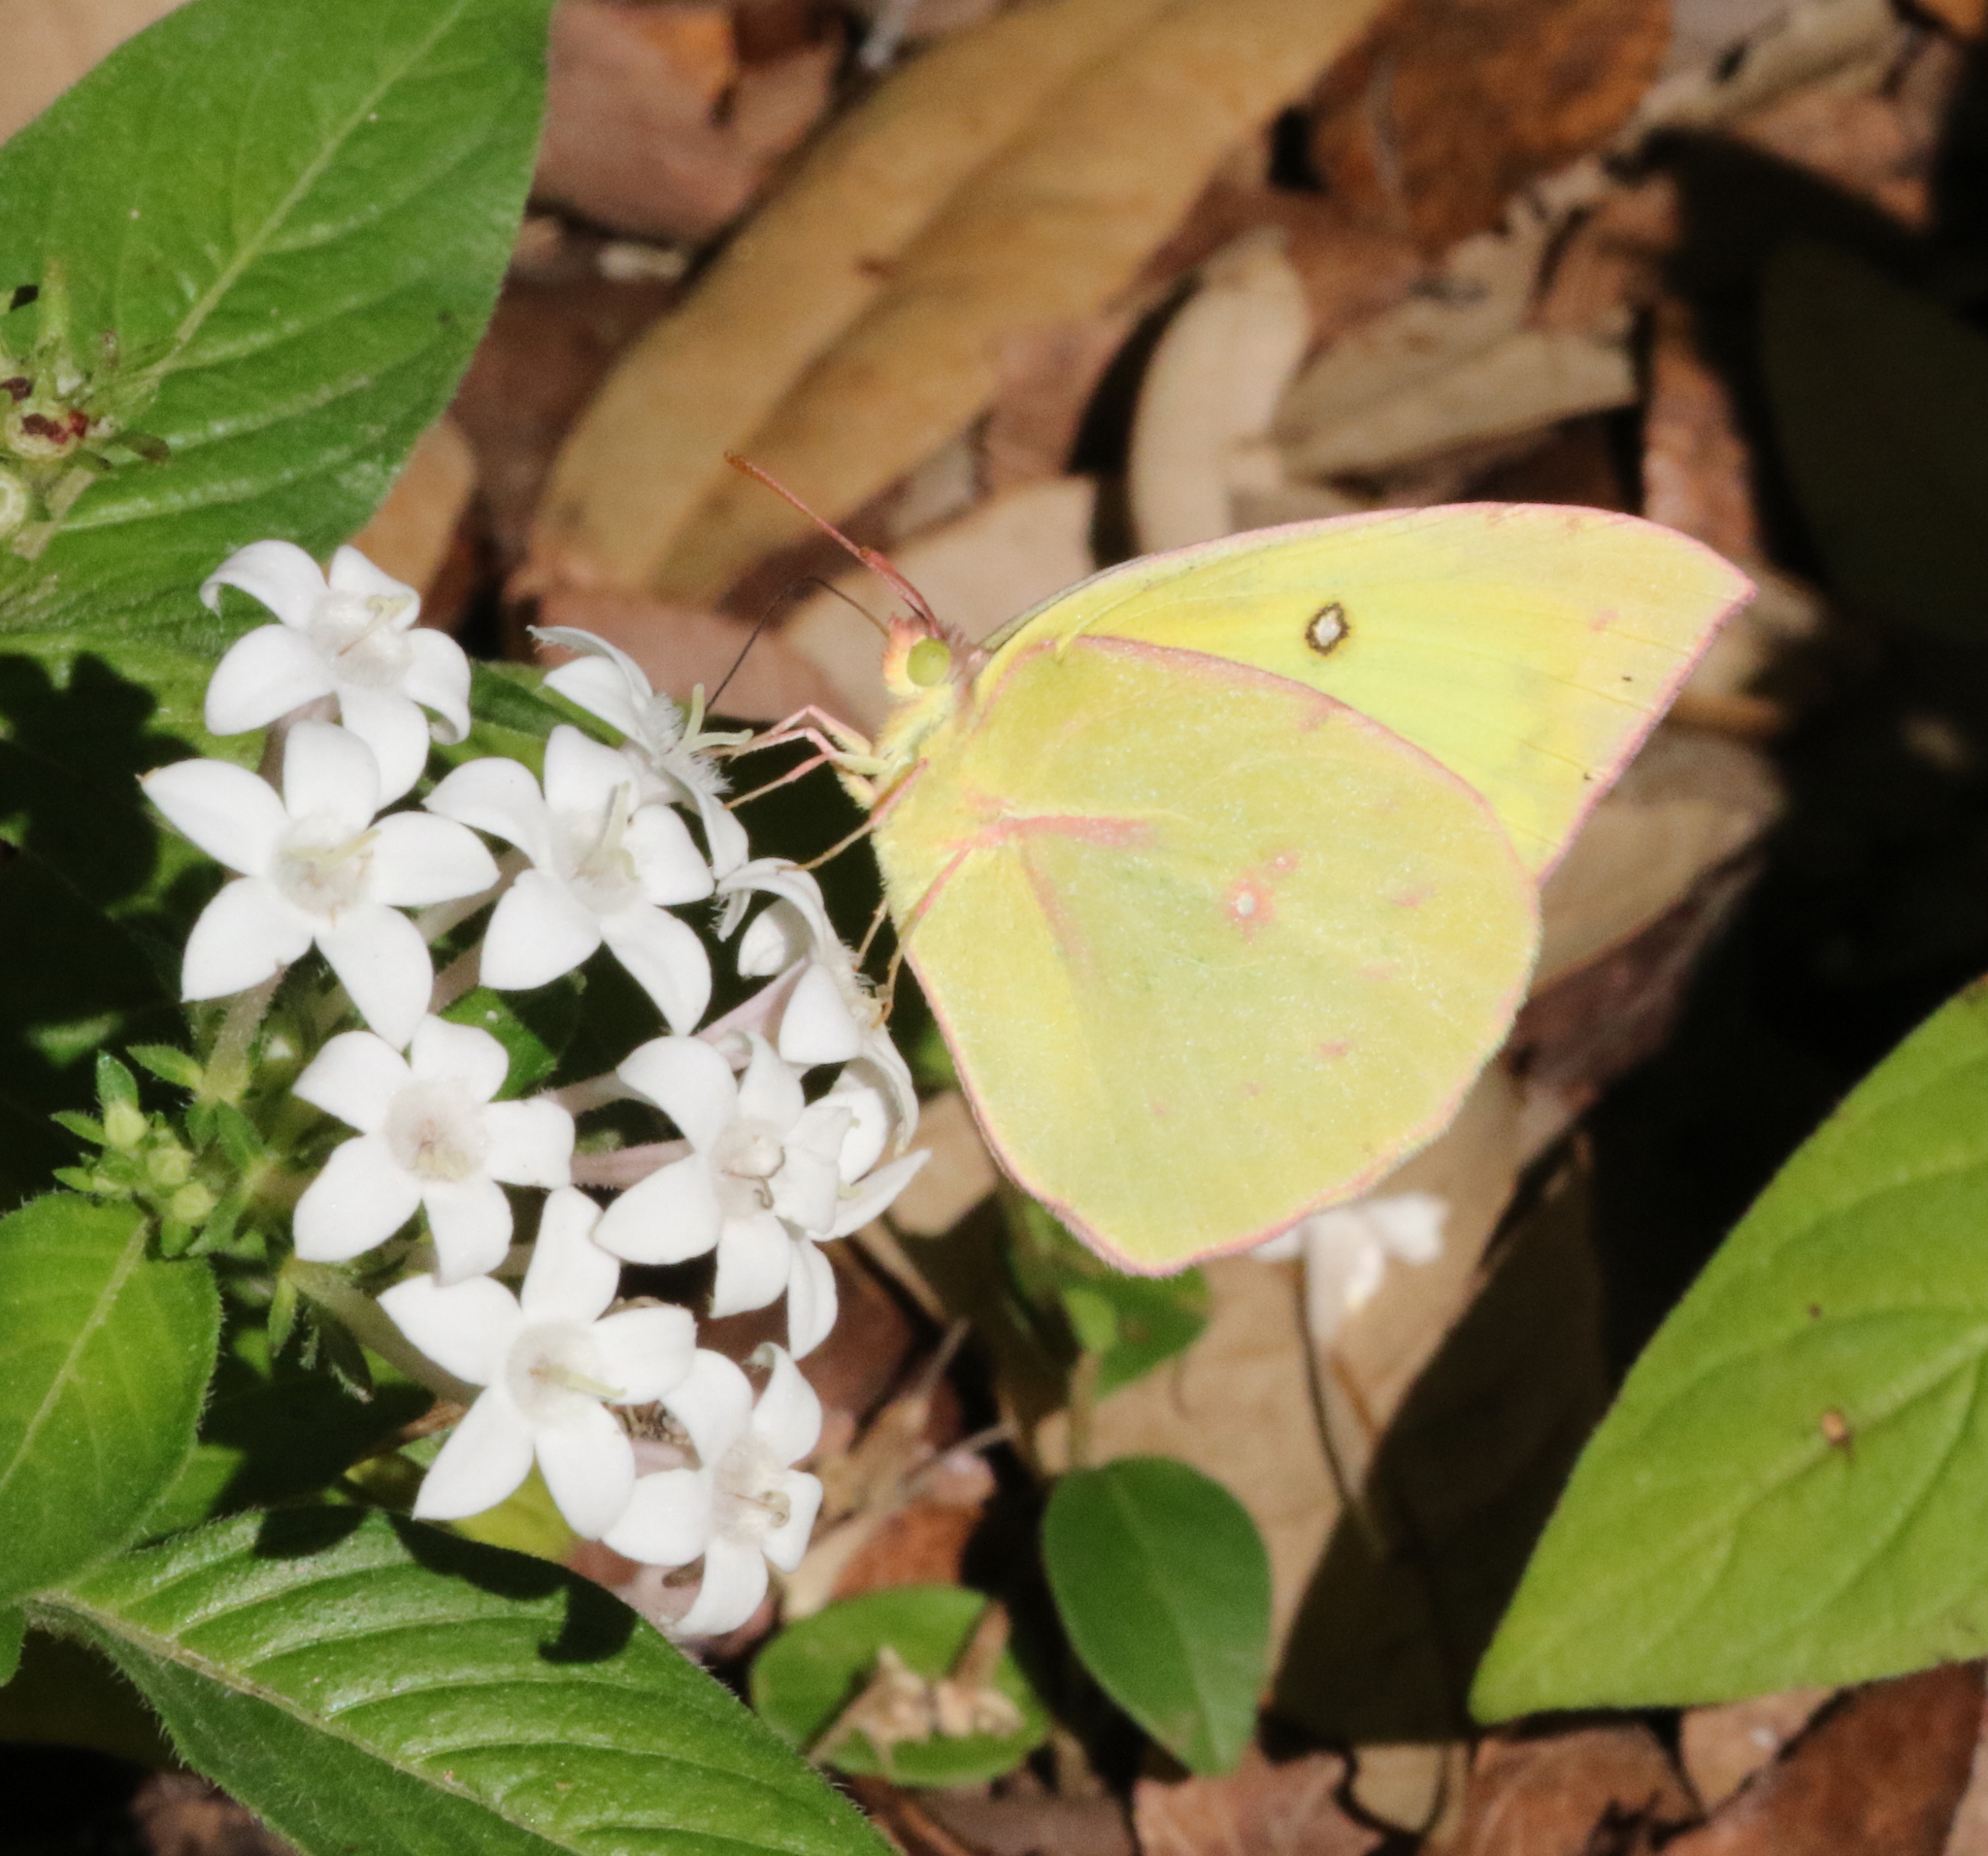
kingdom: Animalia
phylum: Arthropoda
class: Insecta
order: Lepidoptera
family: Pieridae
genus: Zerene
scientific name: Zerene cesonia
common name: Southern dogface
